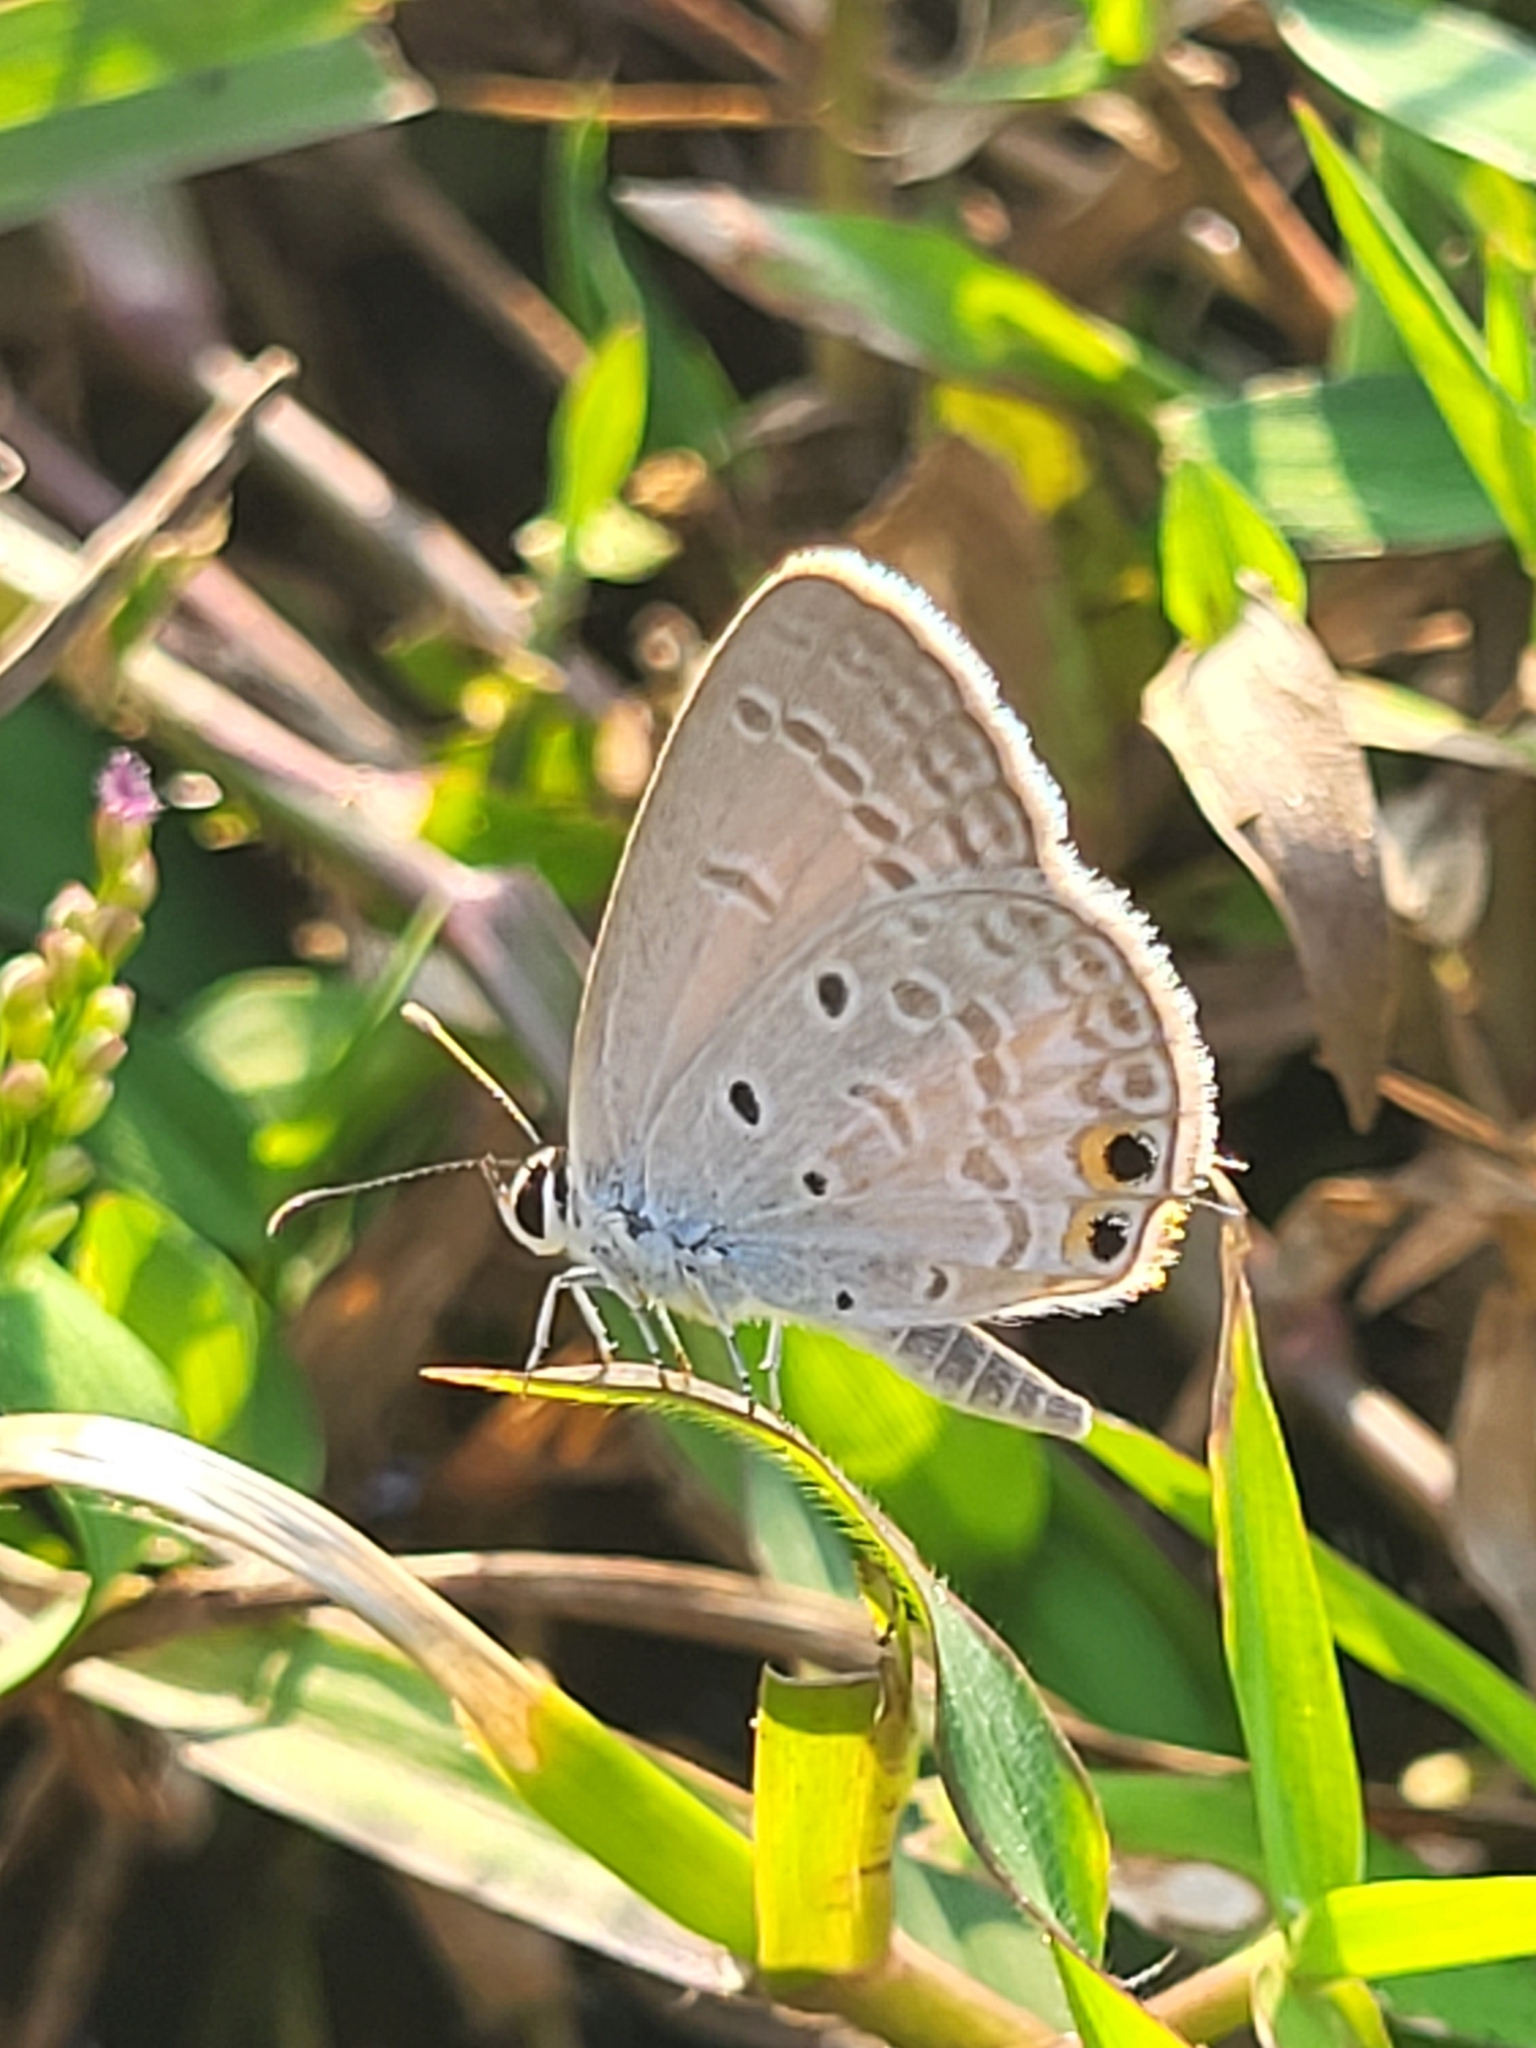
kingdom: Animalia
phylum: Arthropoda
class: Insecta
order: Lepidoptera
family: Lycaenidae
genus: Euchrysops
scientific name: Euchrysops cnejus
